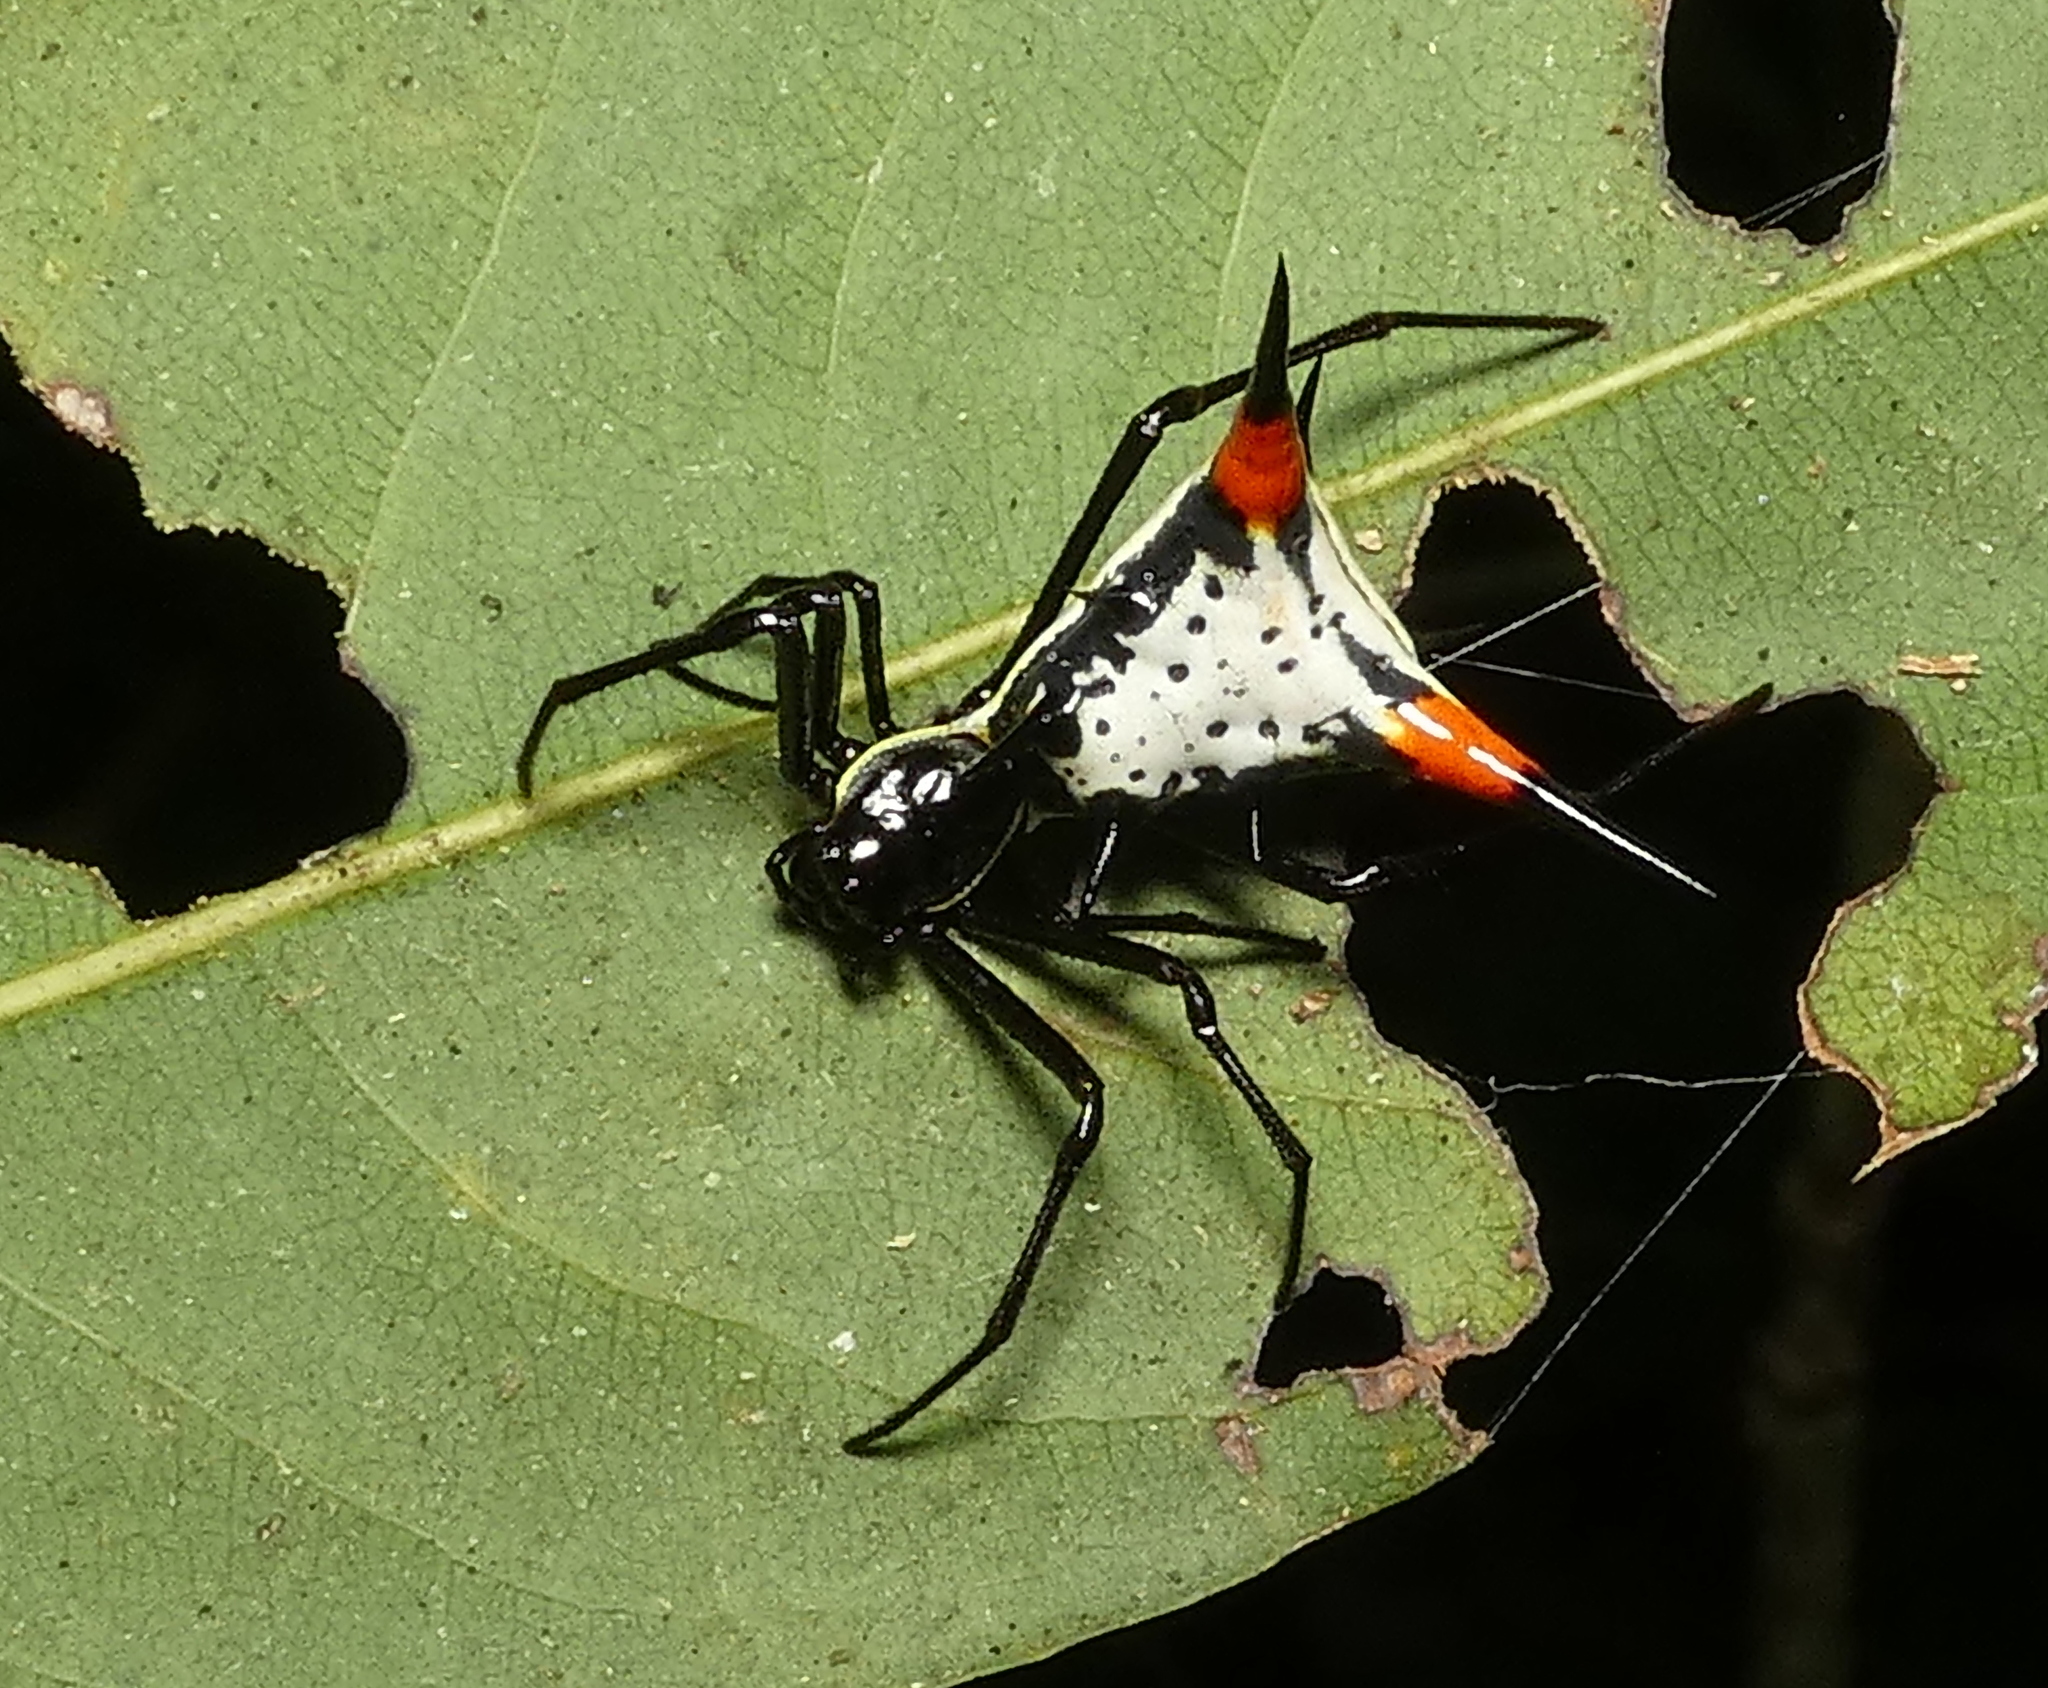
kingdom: Animalia
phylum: Arthropoda
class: Arachnida
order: Araneae
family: Araneidae
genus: Micrathena
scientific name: Micrathena schreibersi
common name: Orb weavers
